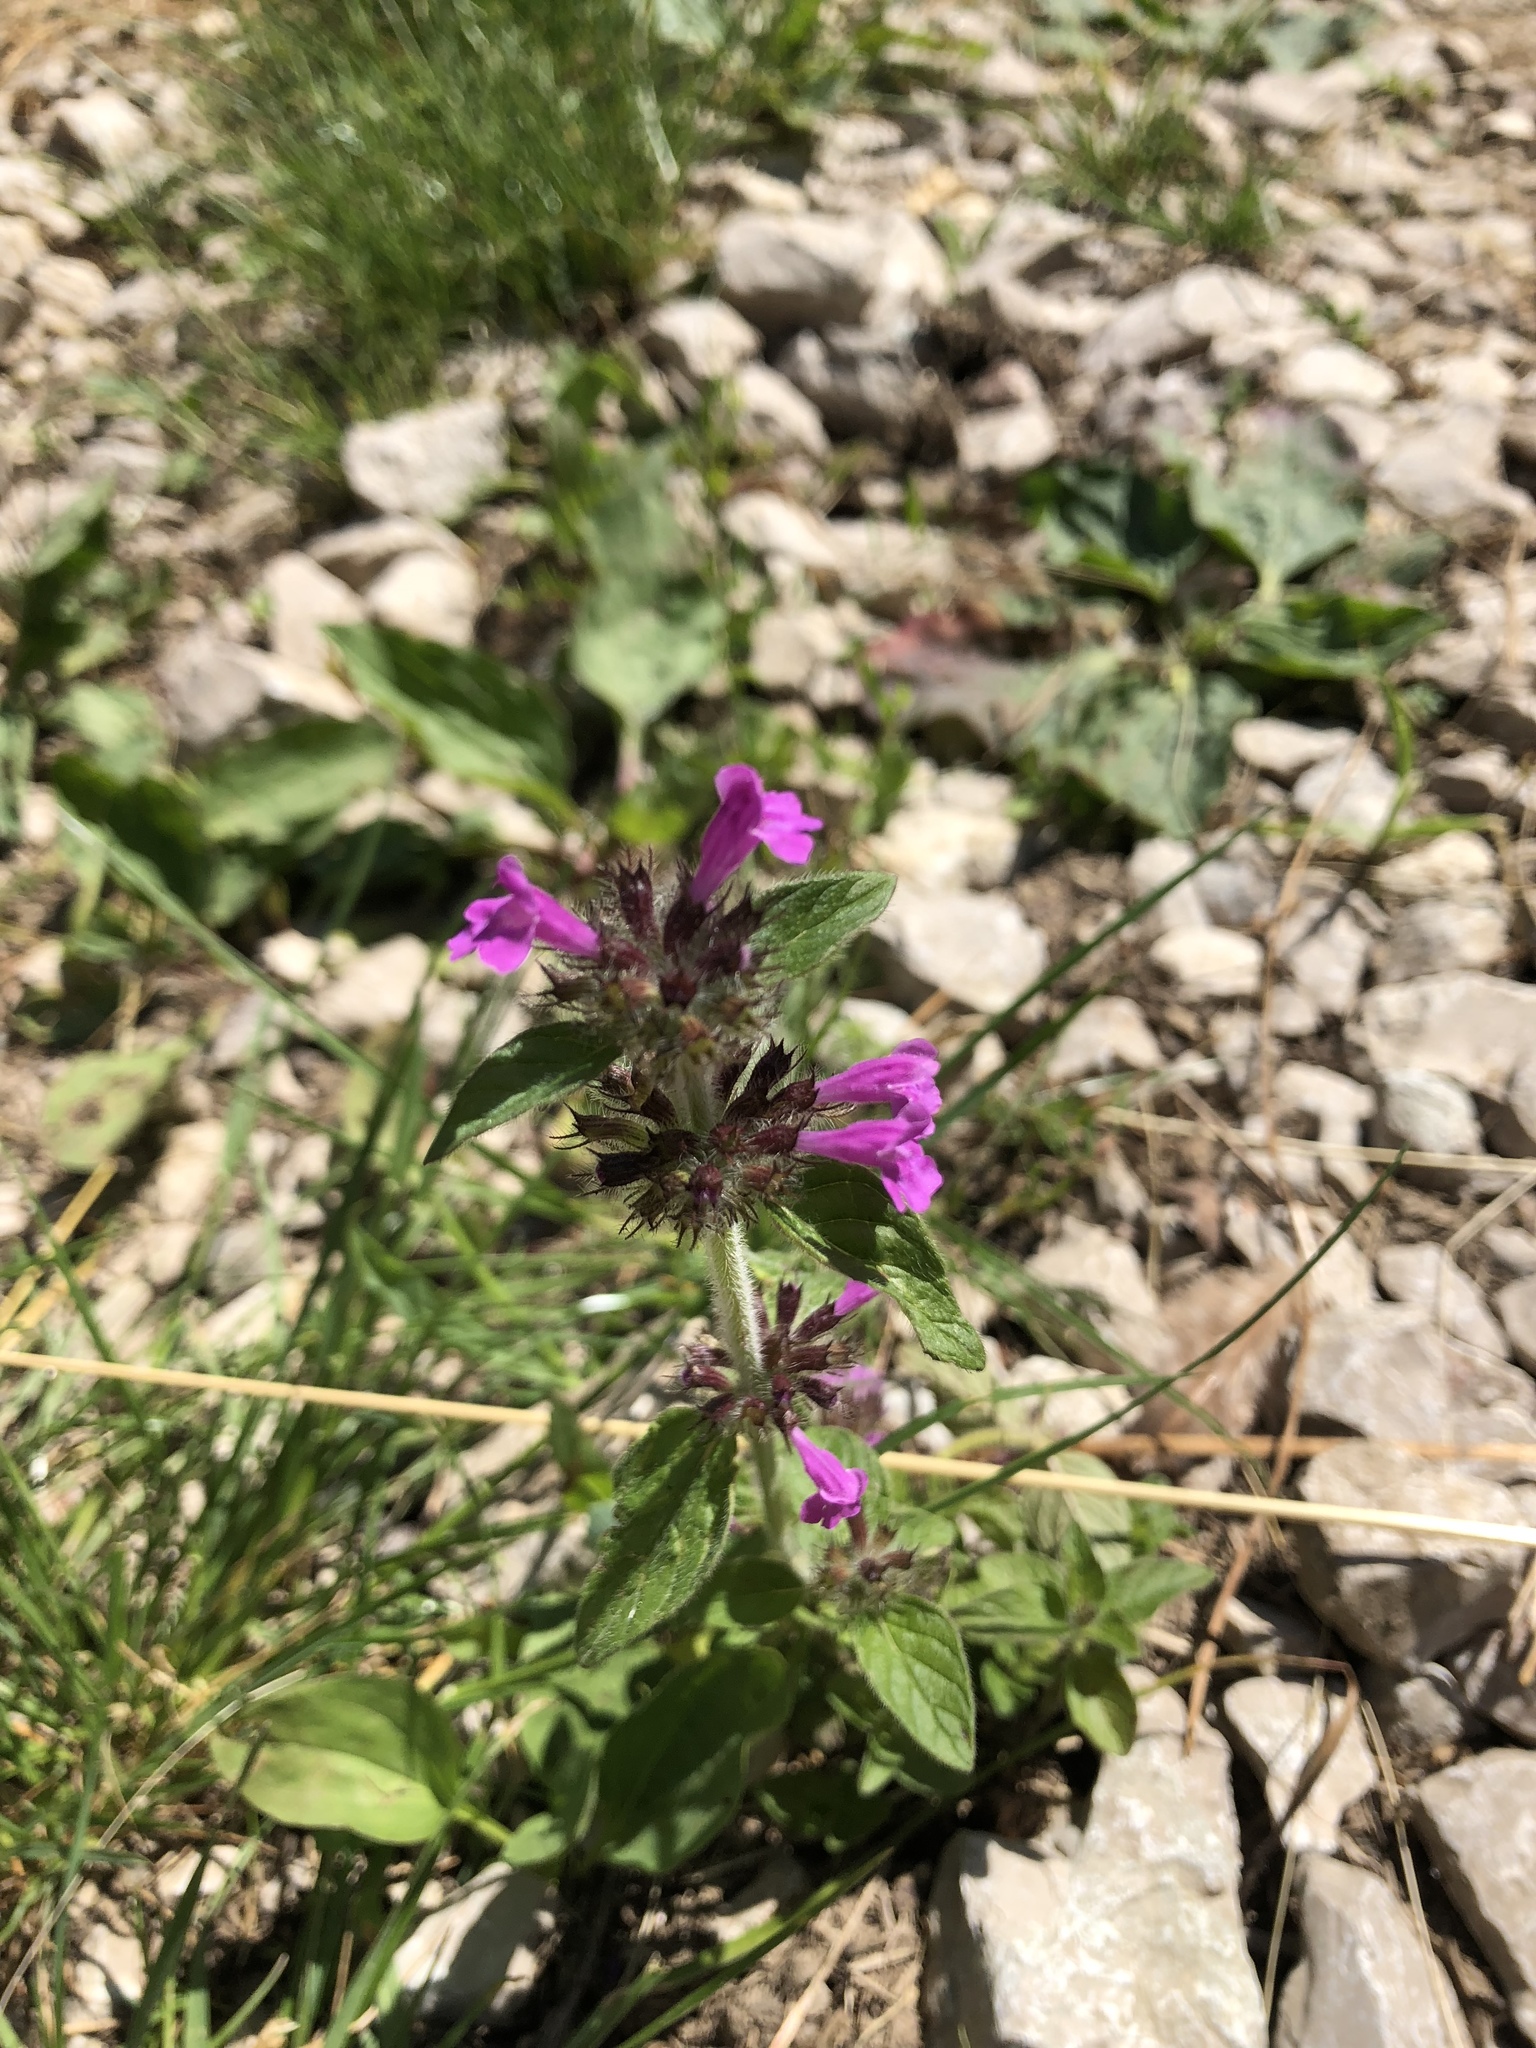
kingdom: Plantae
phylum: Tracheophyta
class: Magnoliopsida
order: Lamiales
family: Lamiaceae
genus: Clinopodium
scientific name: Clinopodium vulgare
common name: Wild basil
